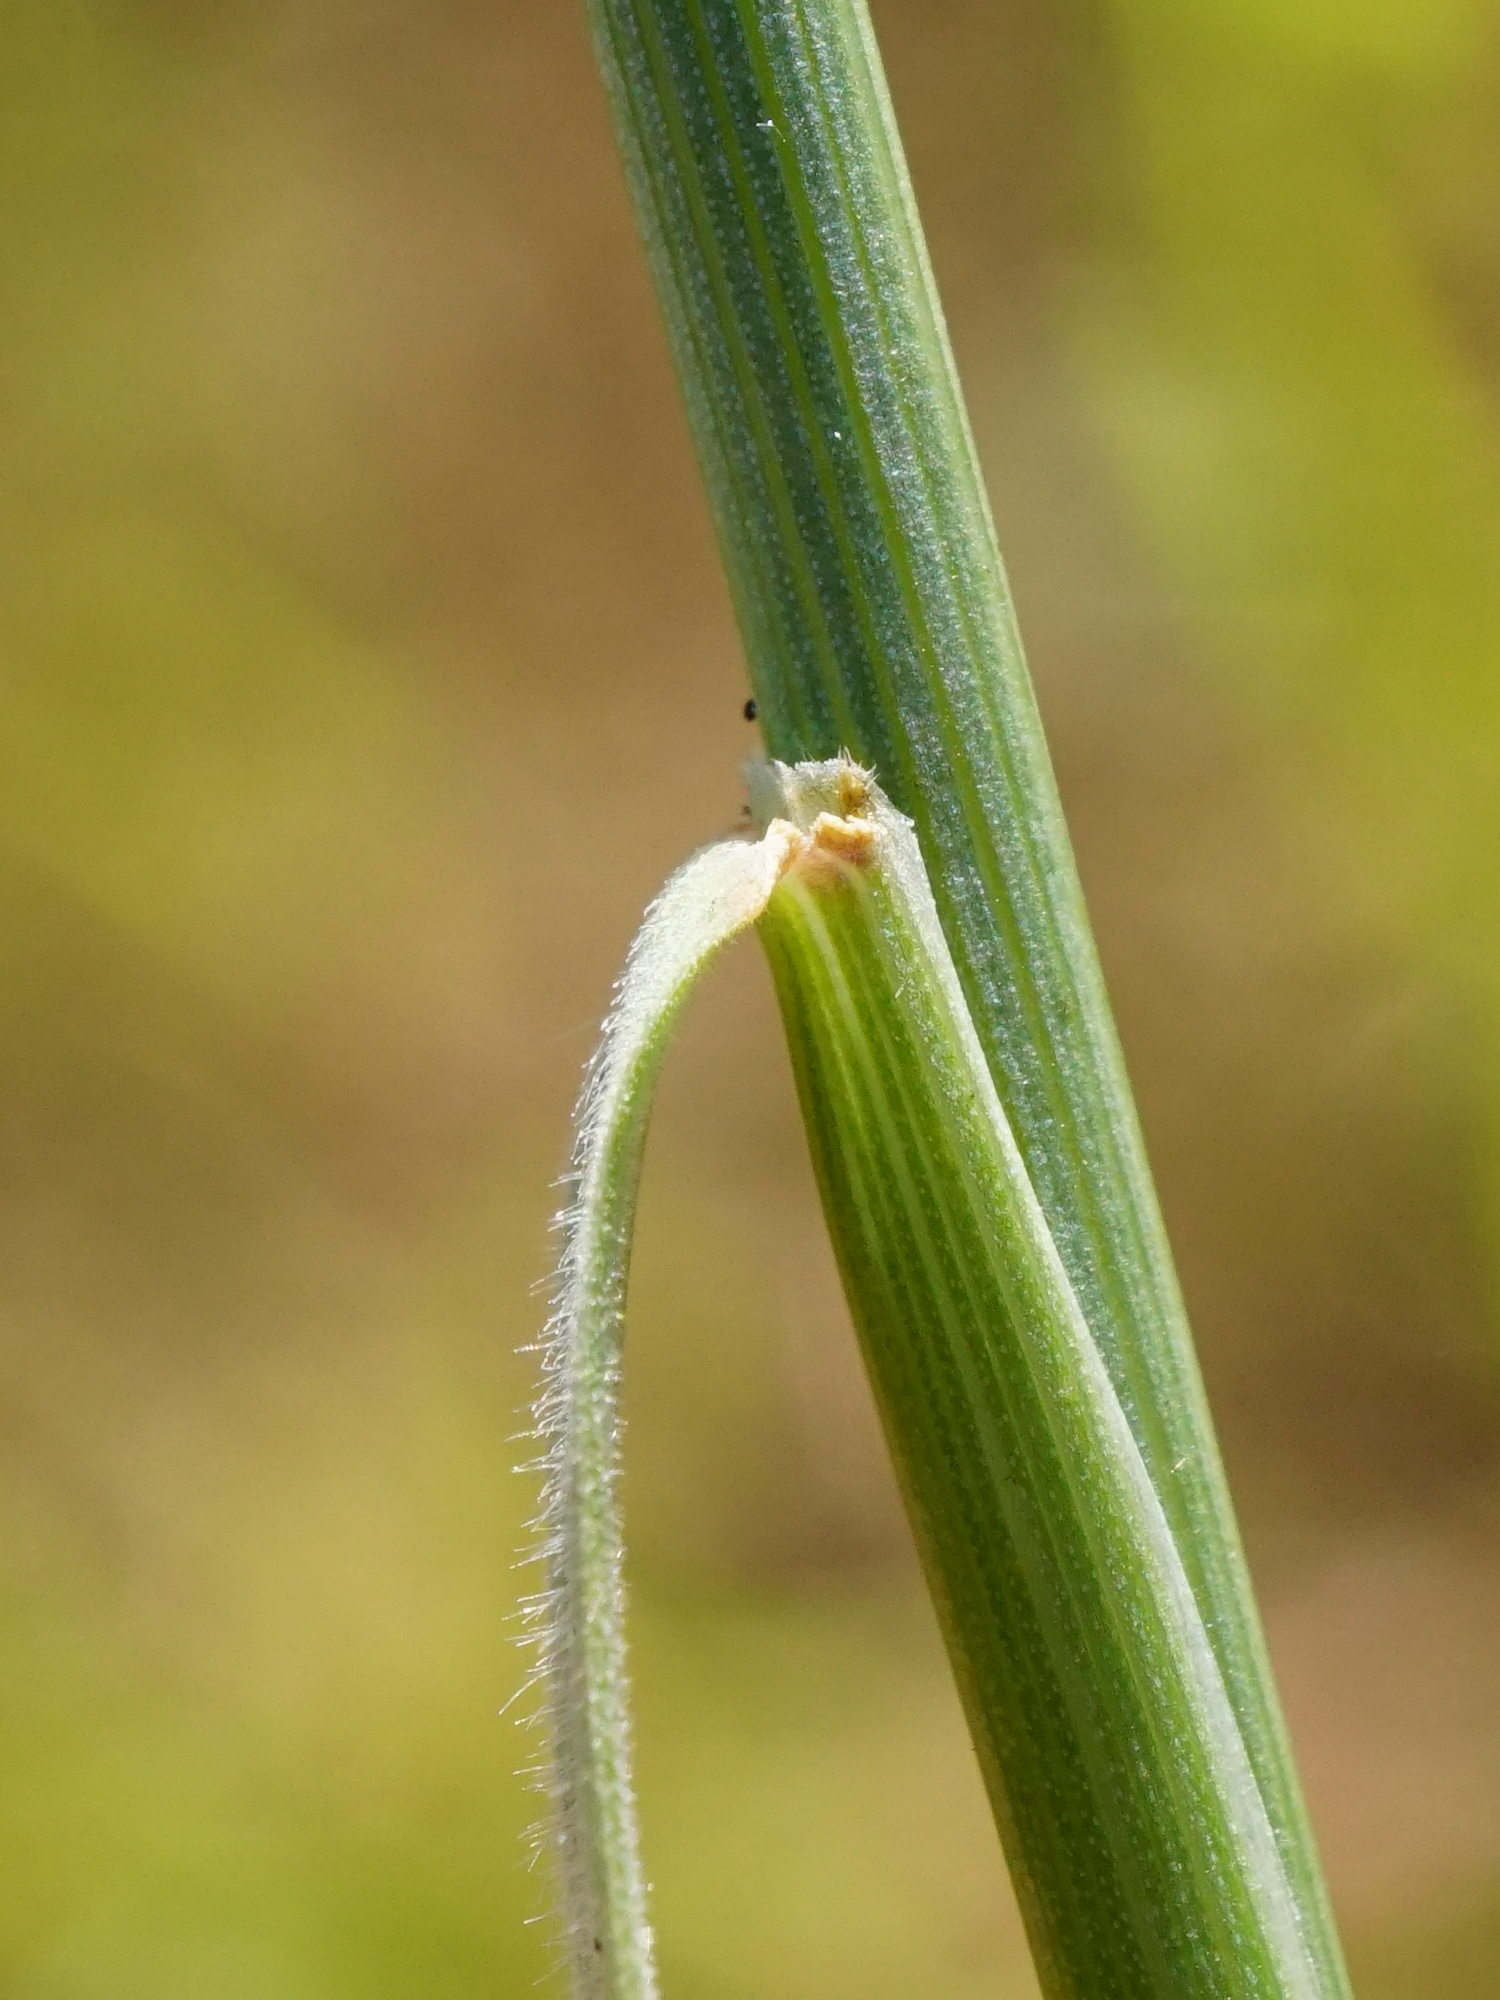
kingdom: Plantae
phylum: Tracheophyta
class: Liliopsida
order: Poales
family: Poaceae
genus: Hordeum
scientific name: Hordeum jubatum
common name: Foxtail barley
